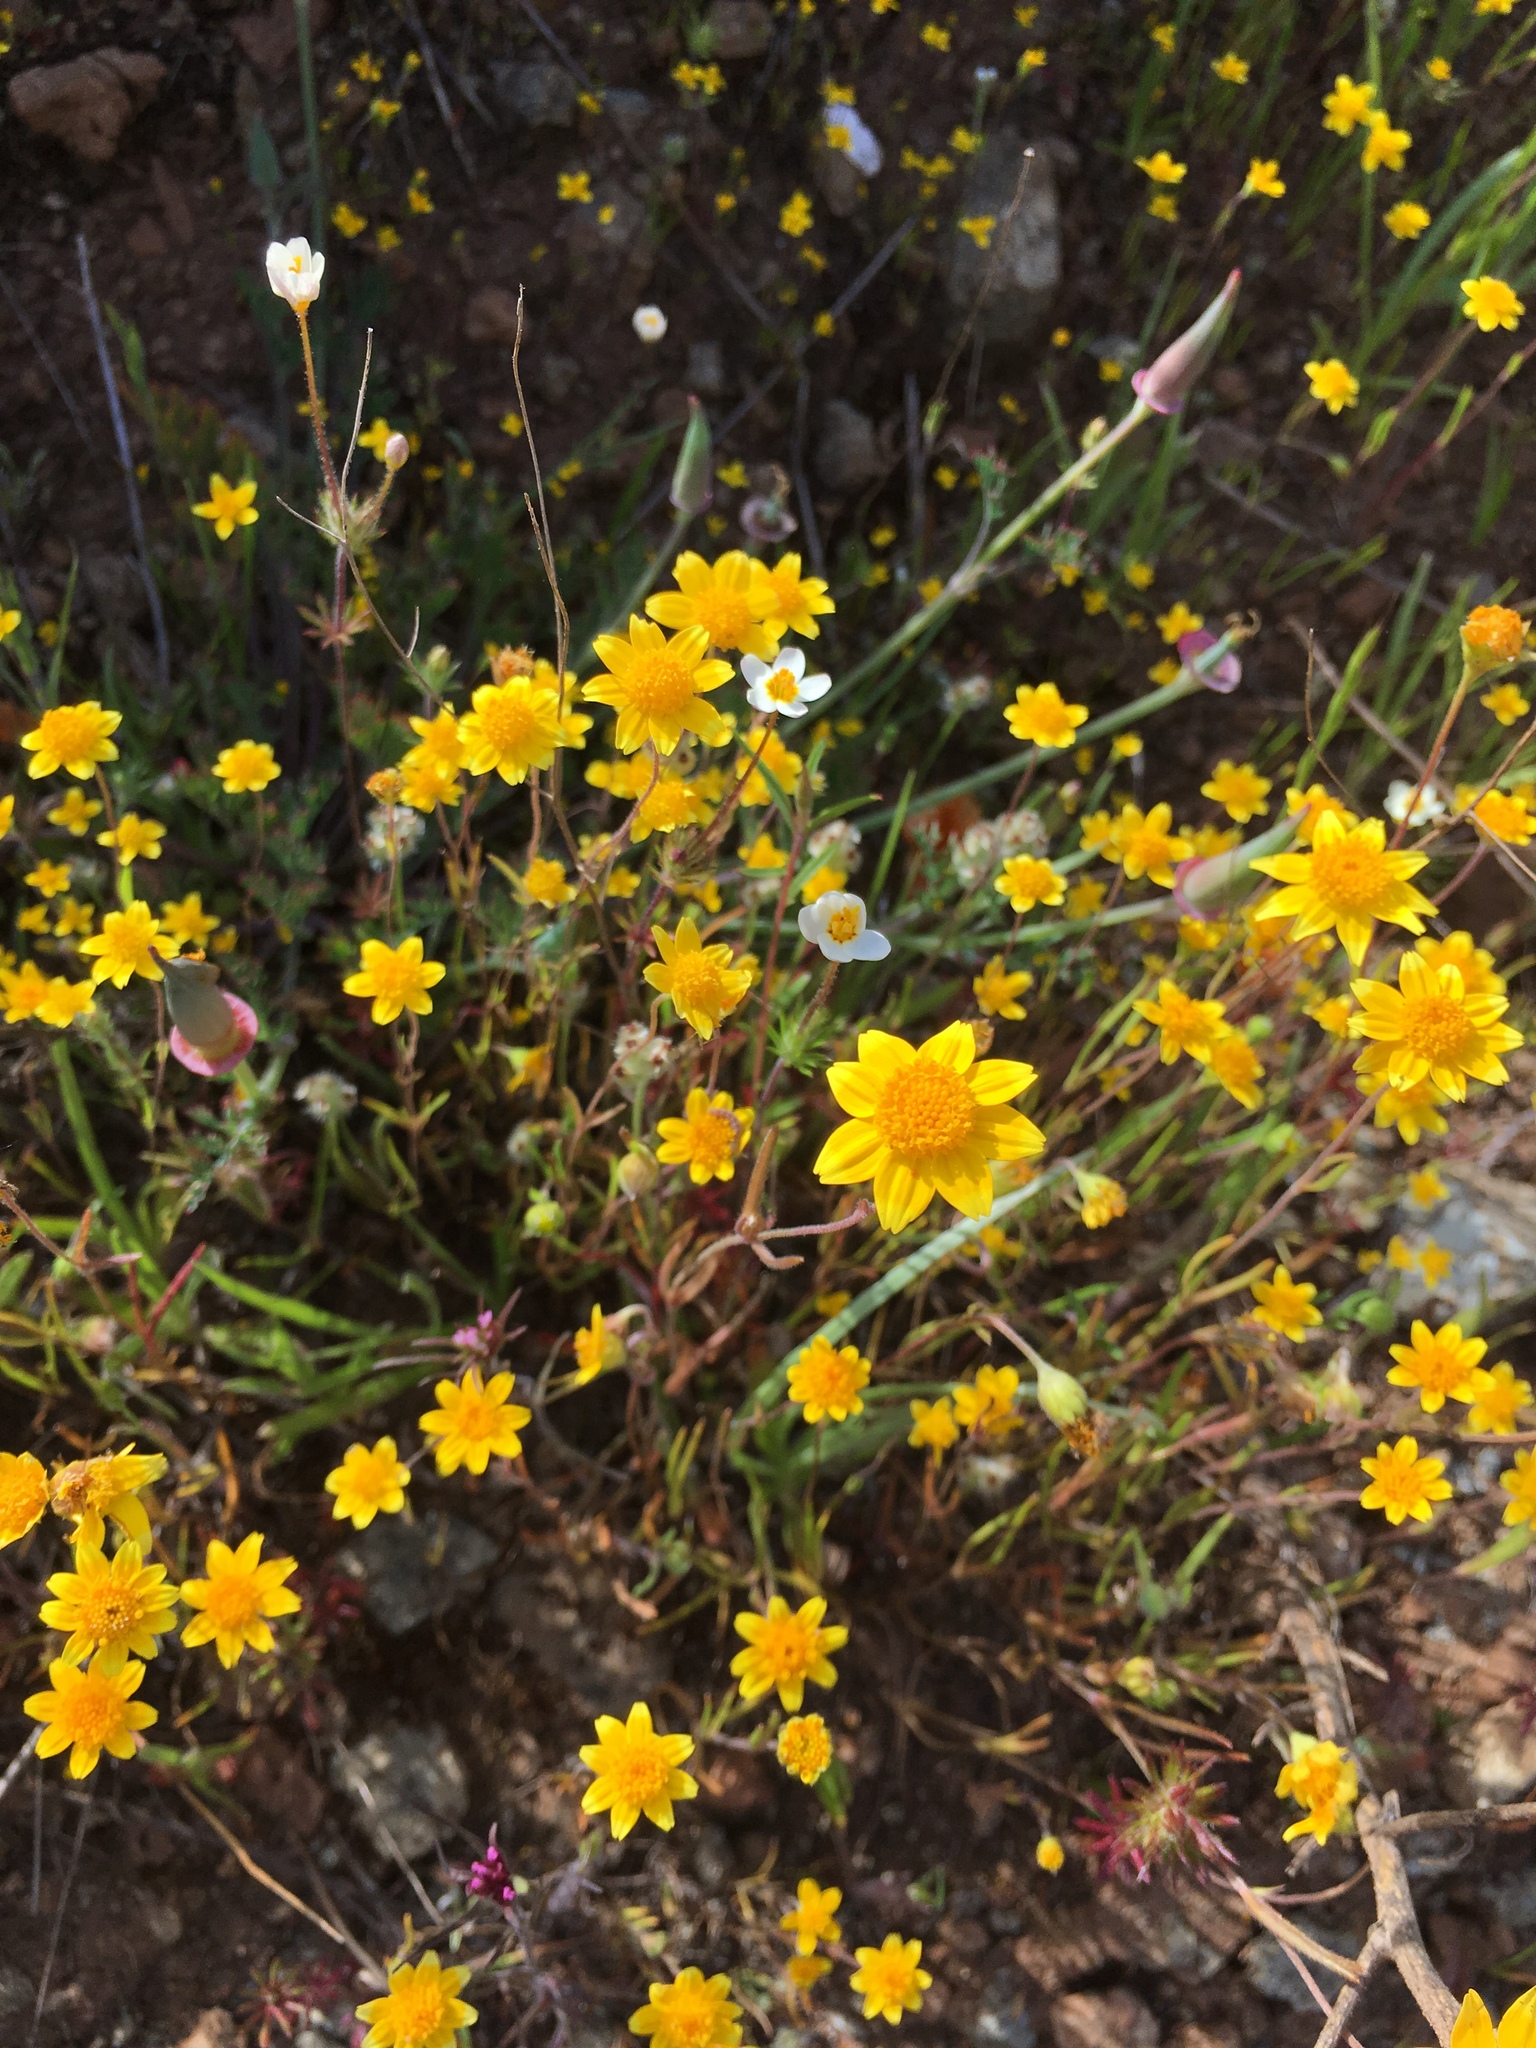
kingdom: Plantae
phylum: Tracheophyta
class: Magnoliopsida
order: Asterales
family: Asteraceae
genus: Lasthenia
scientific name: Lasthenia californica
